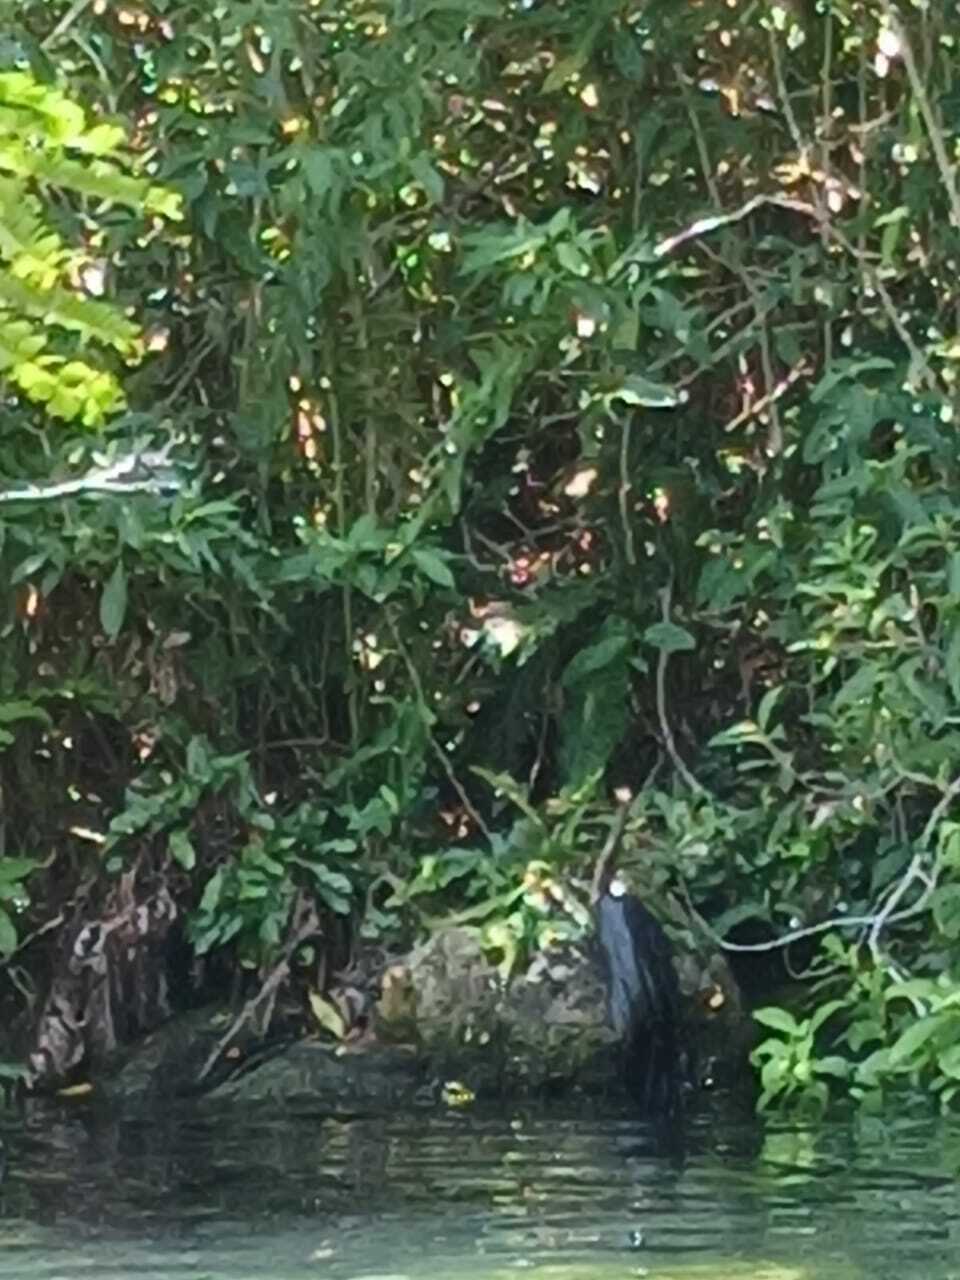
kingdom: Animalia
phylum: Chordata
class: Aves
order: Suliformes
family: Anhingidae
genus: Anhinga
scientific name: Anhinga anhinga
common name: Anhinga
